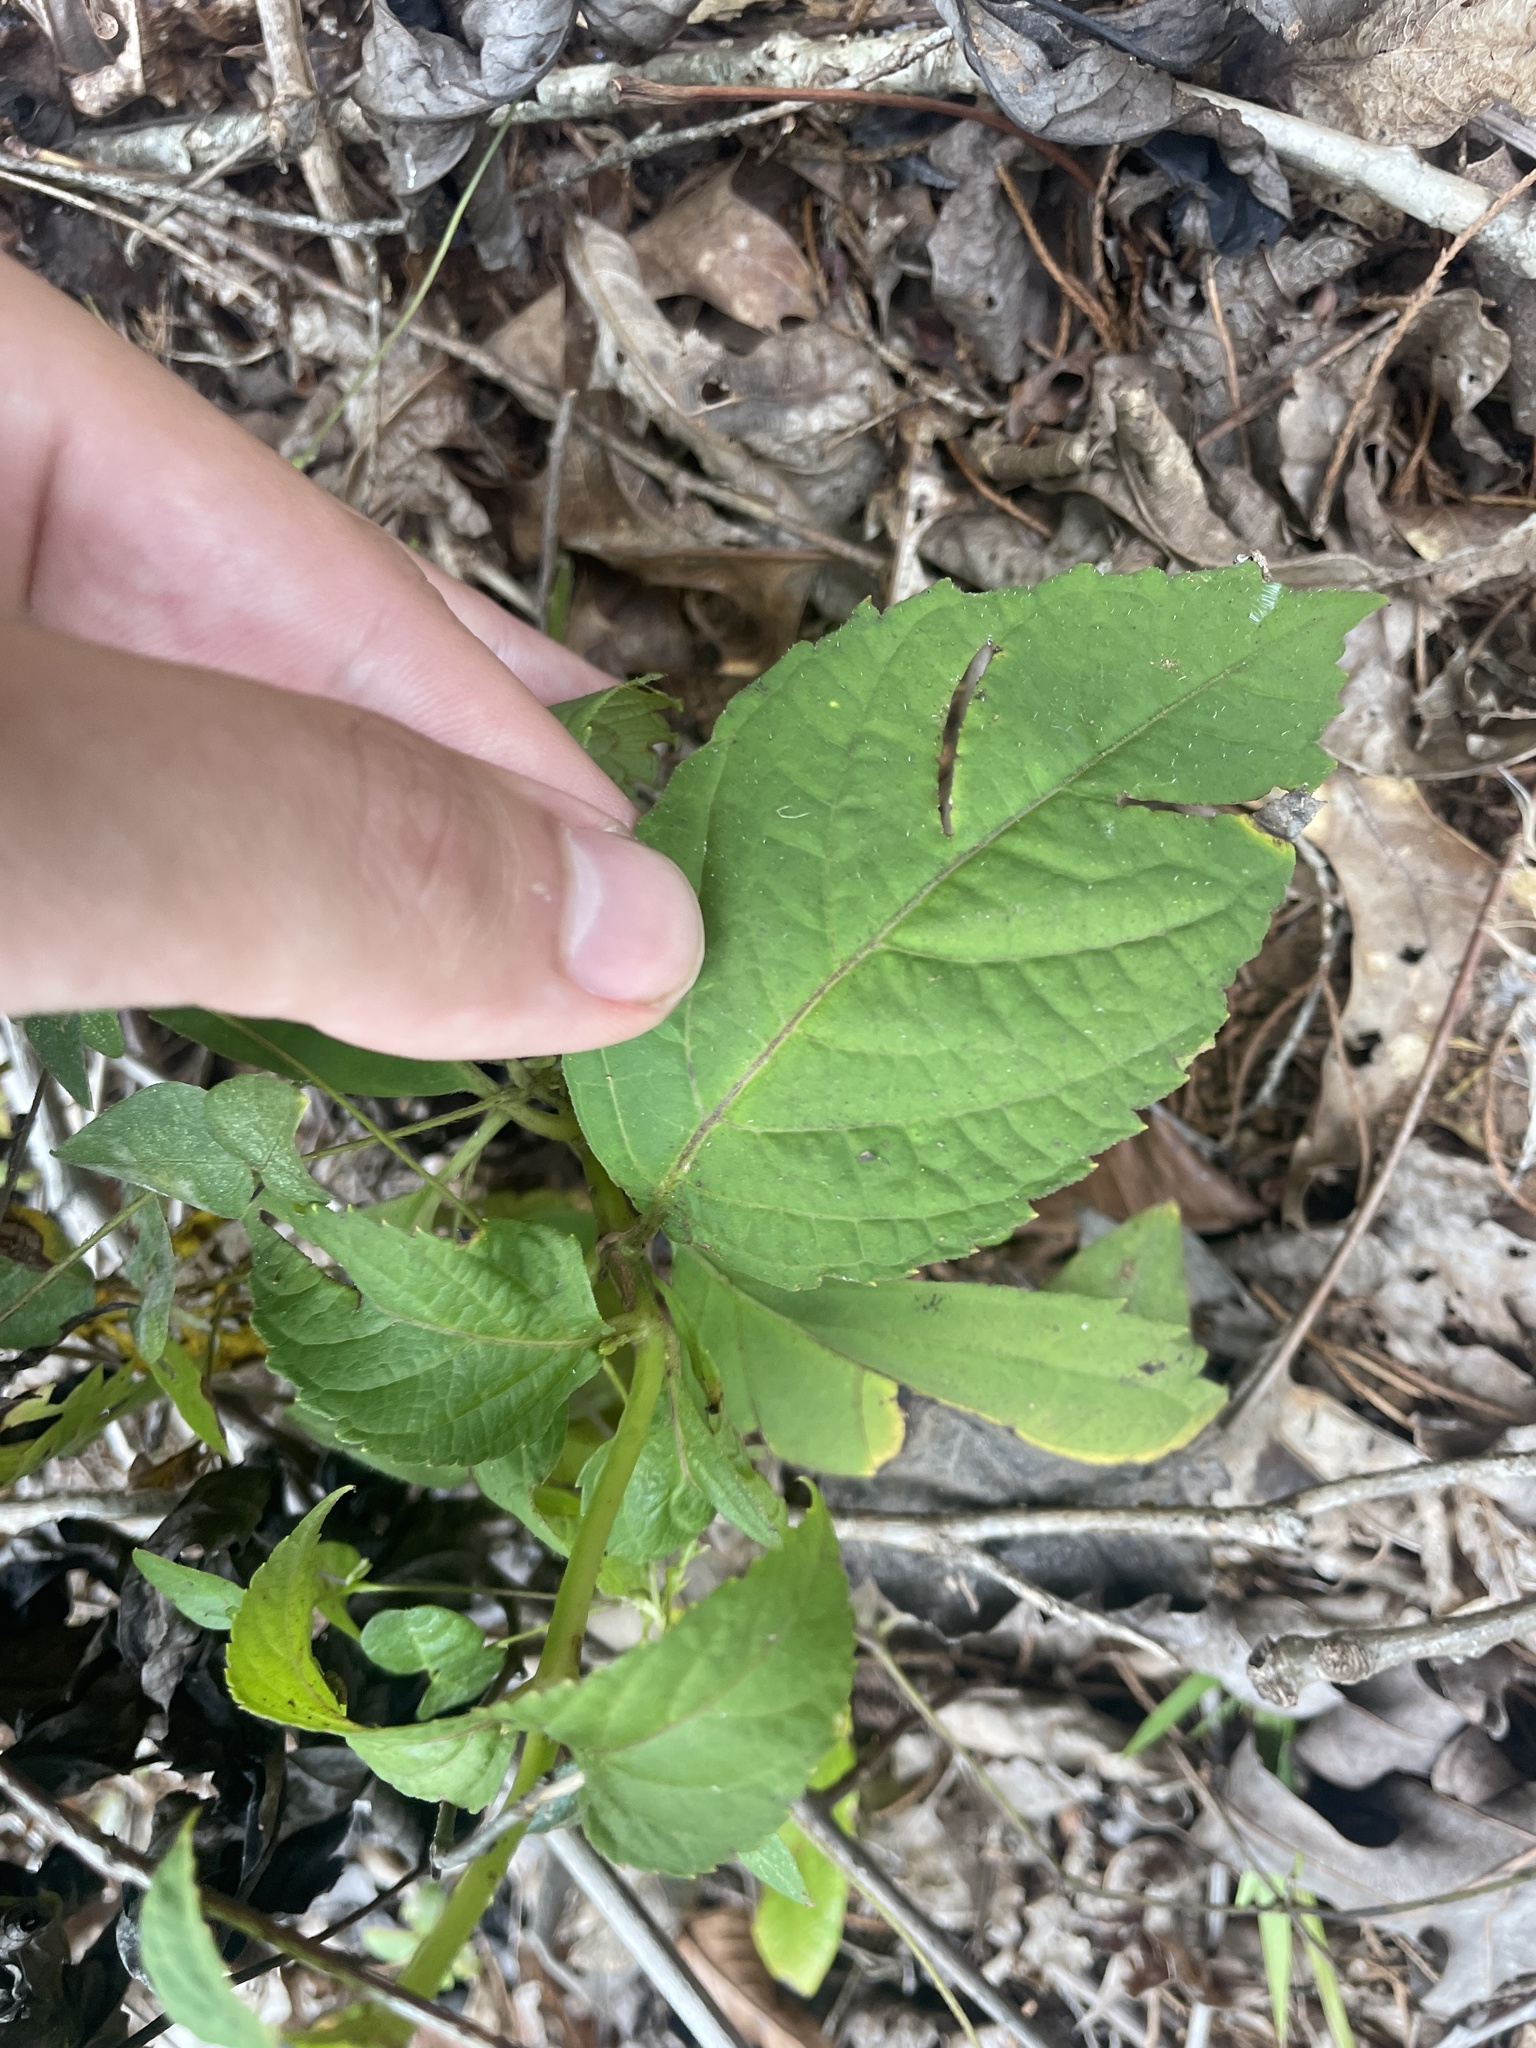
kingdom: Plantae
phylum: Tracheophyta
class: Magnoliopsida
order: Lamiales
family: Lamiaceae
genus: Collinsonia
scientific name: Collinsonia canadensis
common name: Northern horsebalm
